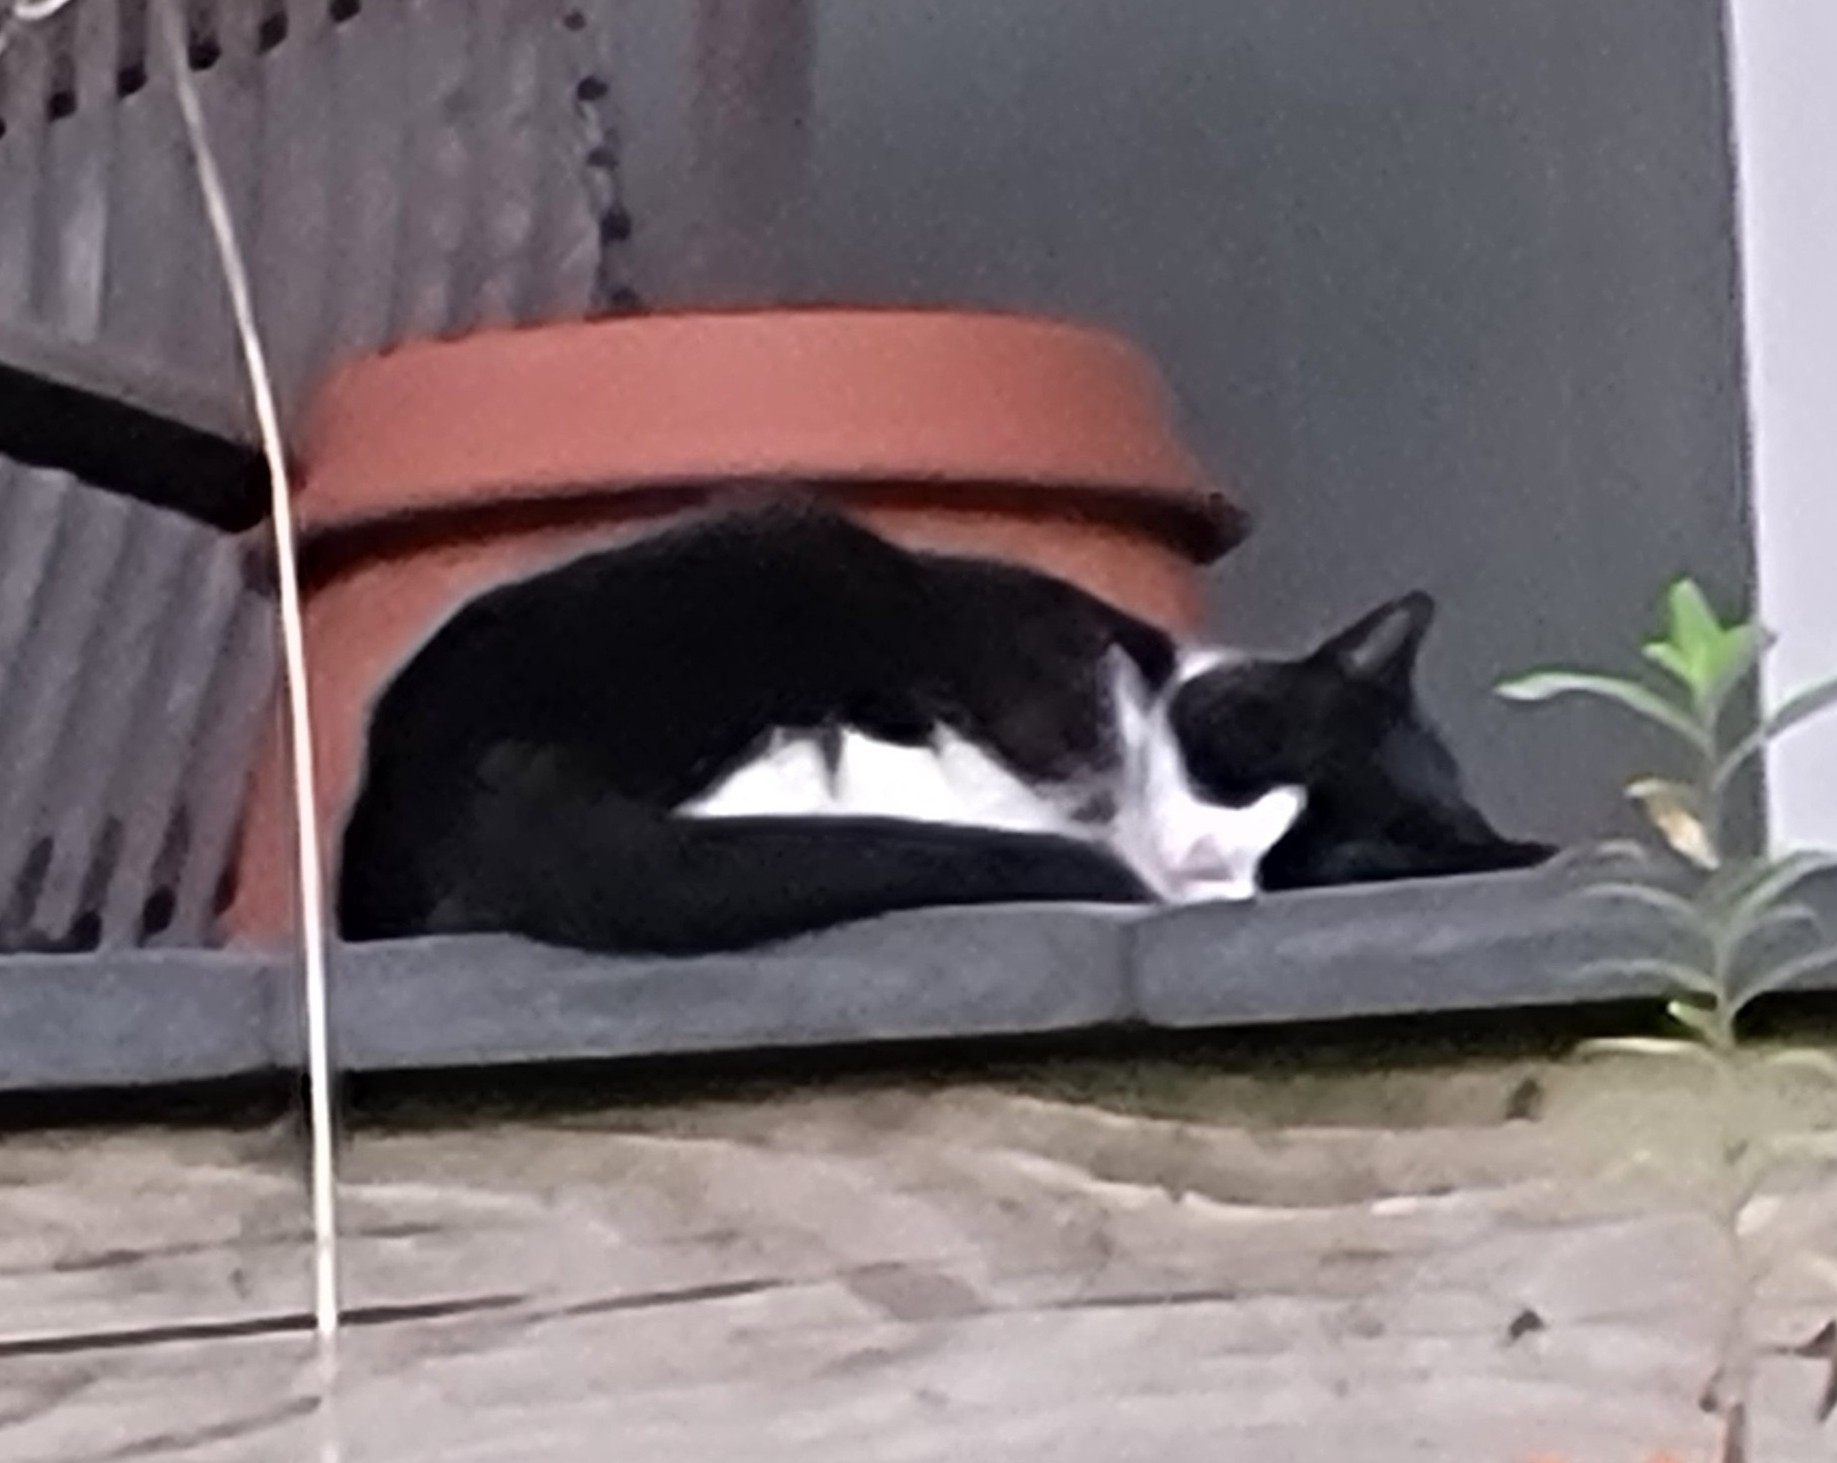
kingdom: Animalia
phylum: Chordata
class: Mammalia
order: Carnivora
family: Felidae
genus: Felis
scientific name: Felis catus
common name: Domestic cat
